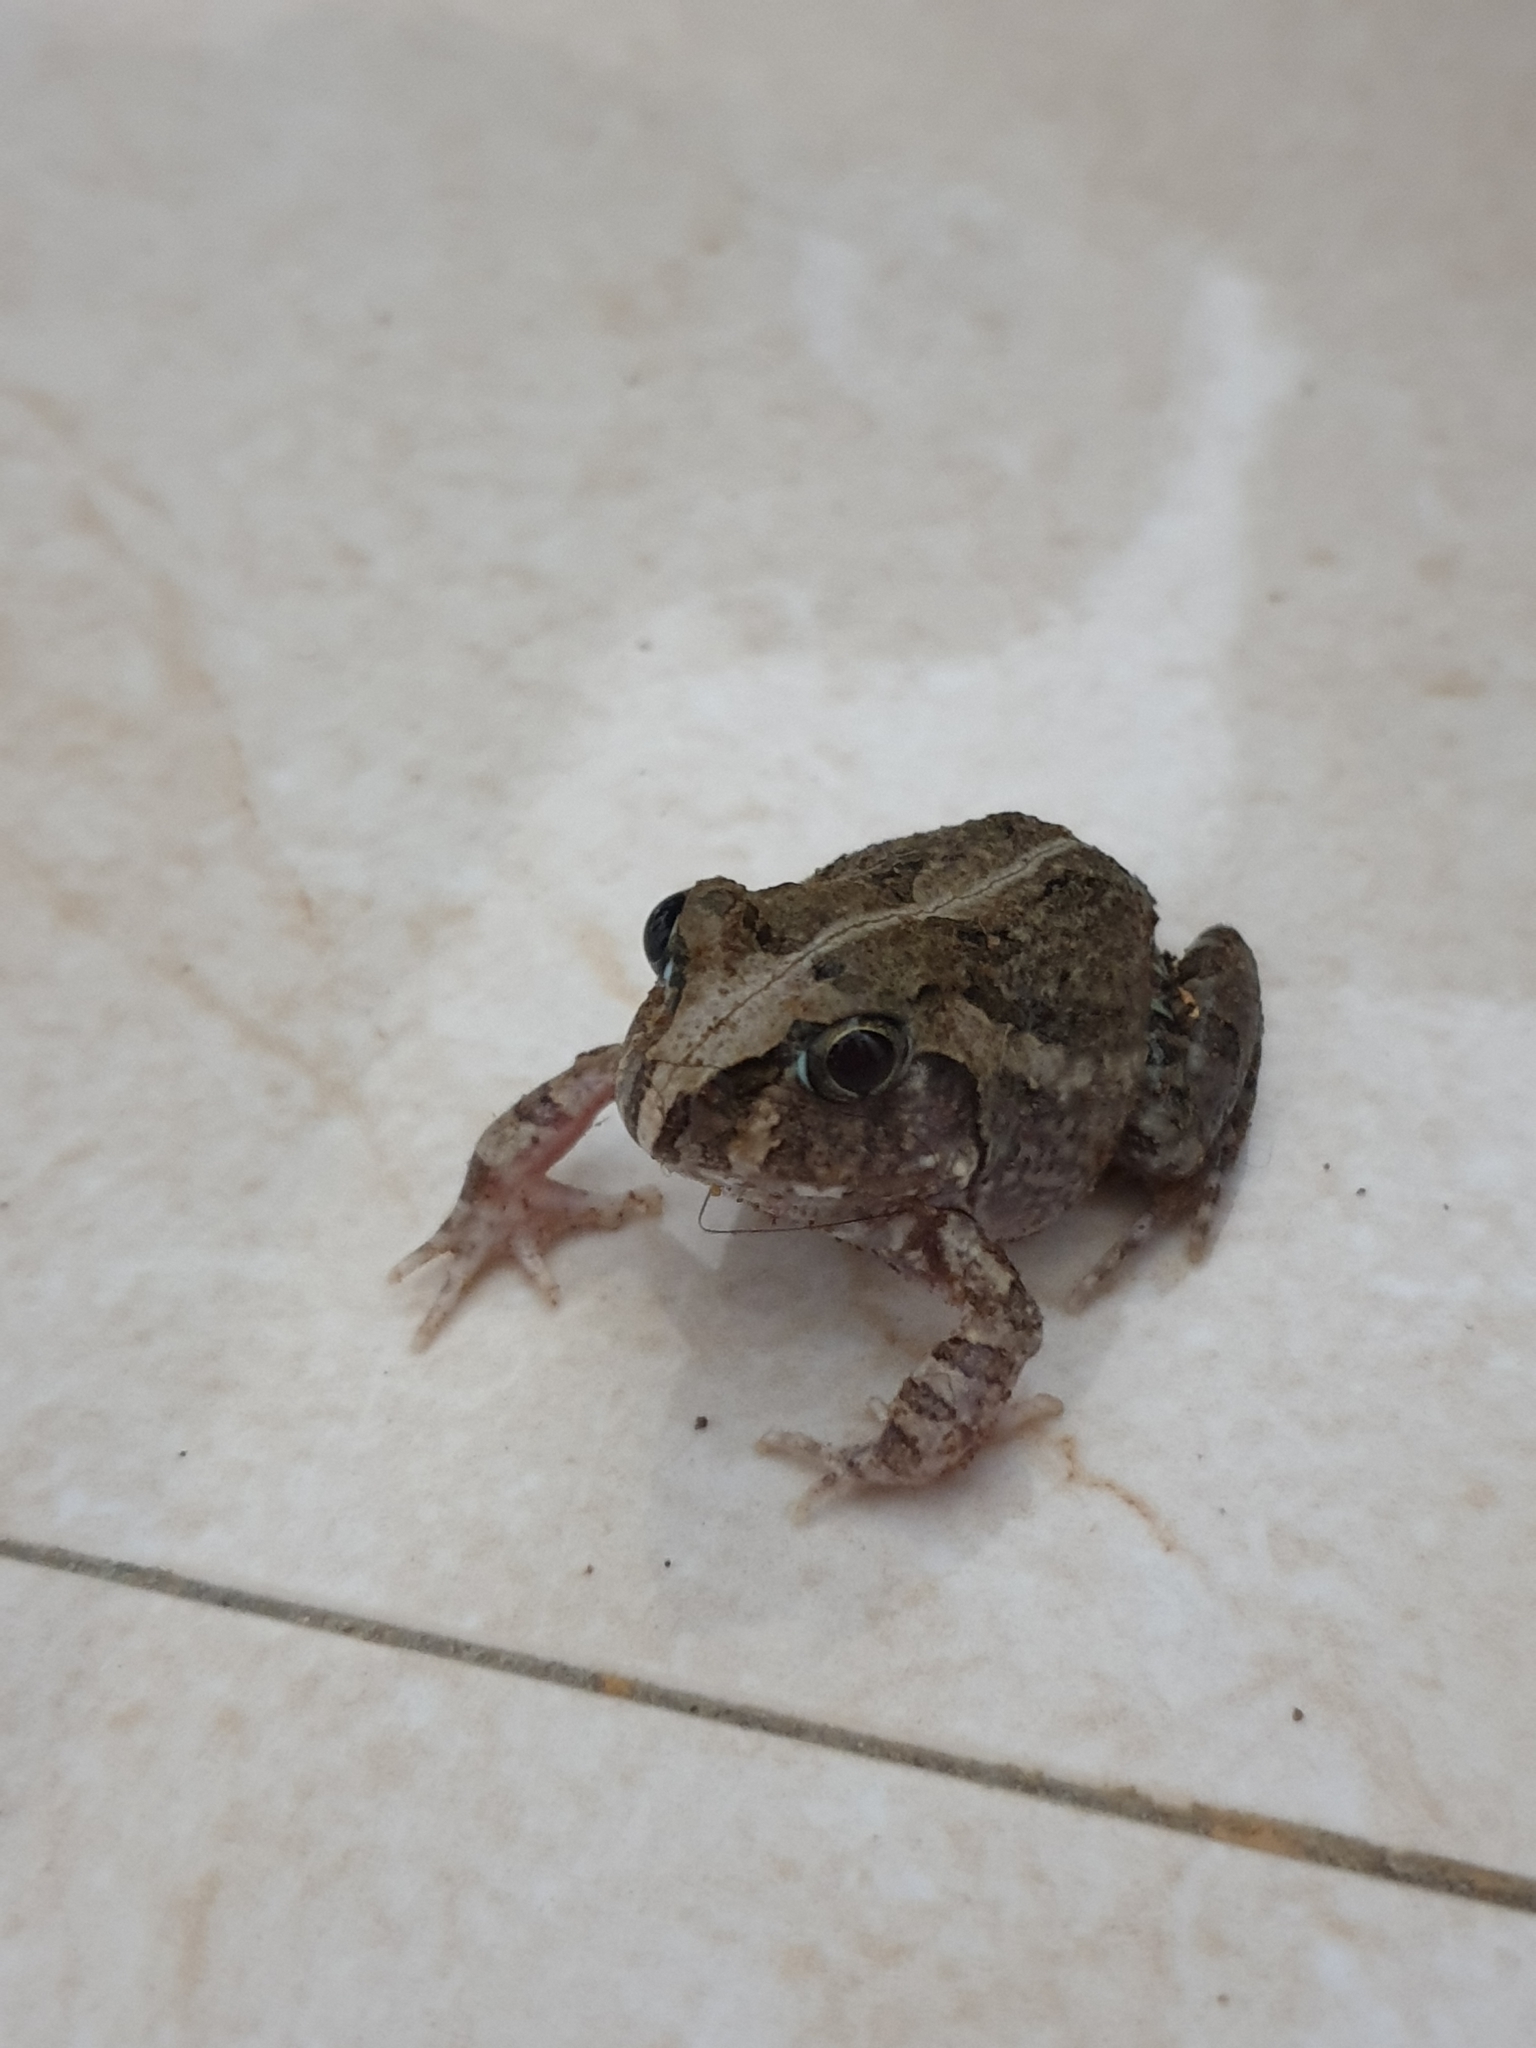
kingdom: Animalia
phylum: Chordata
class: Amphibia
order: Anura
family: Dicroglossidae
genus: Sphaerotheca
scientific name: Sphaerotheca breviceps
